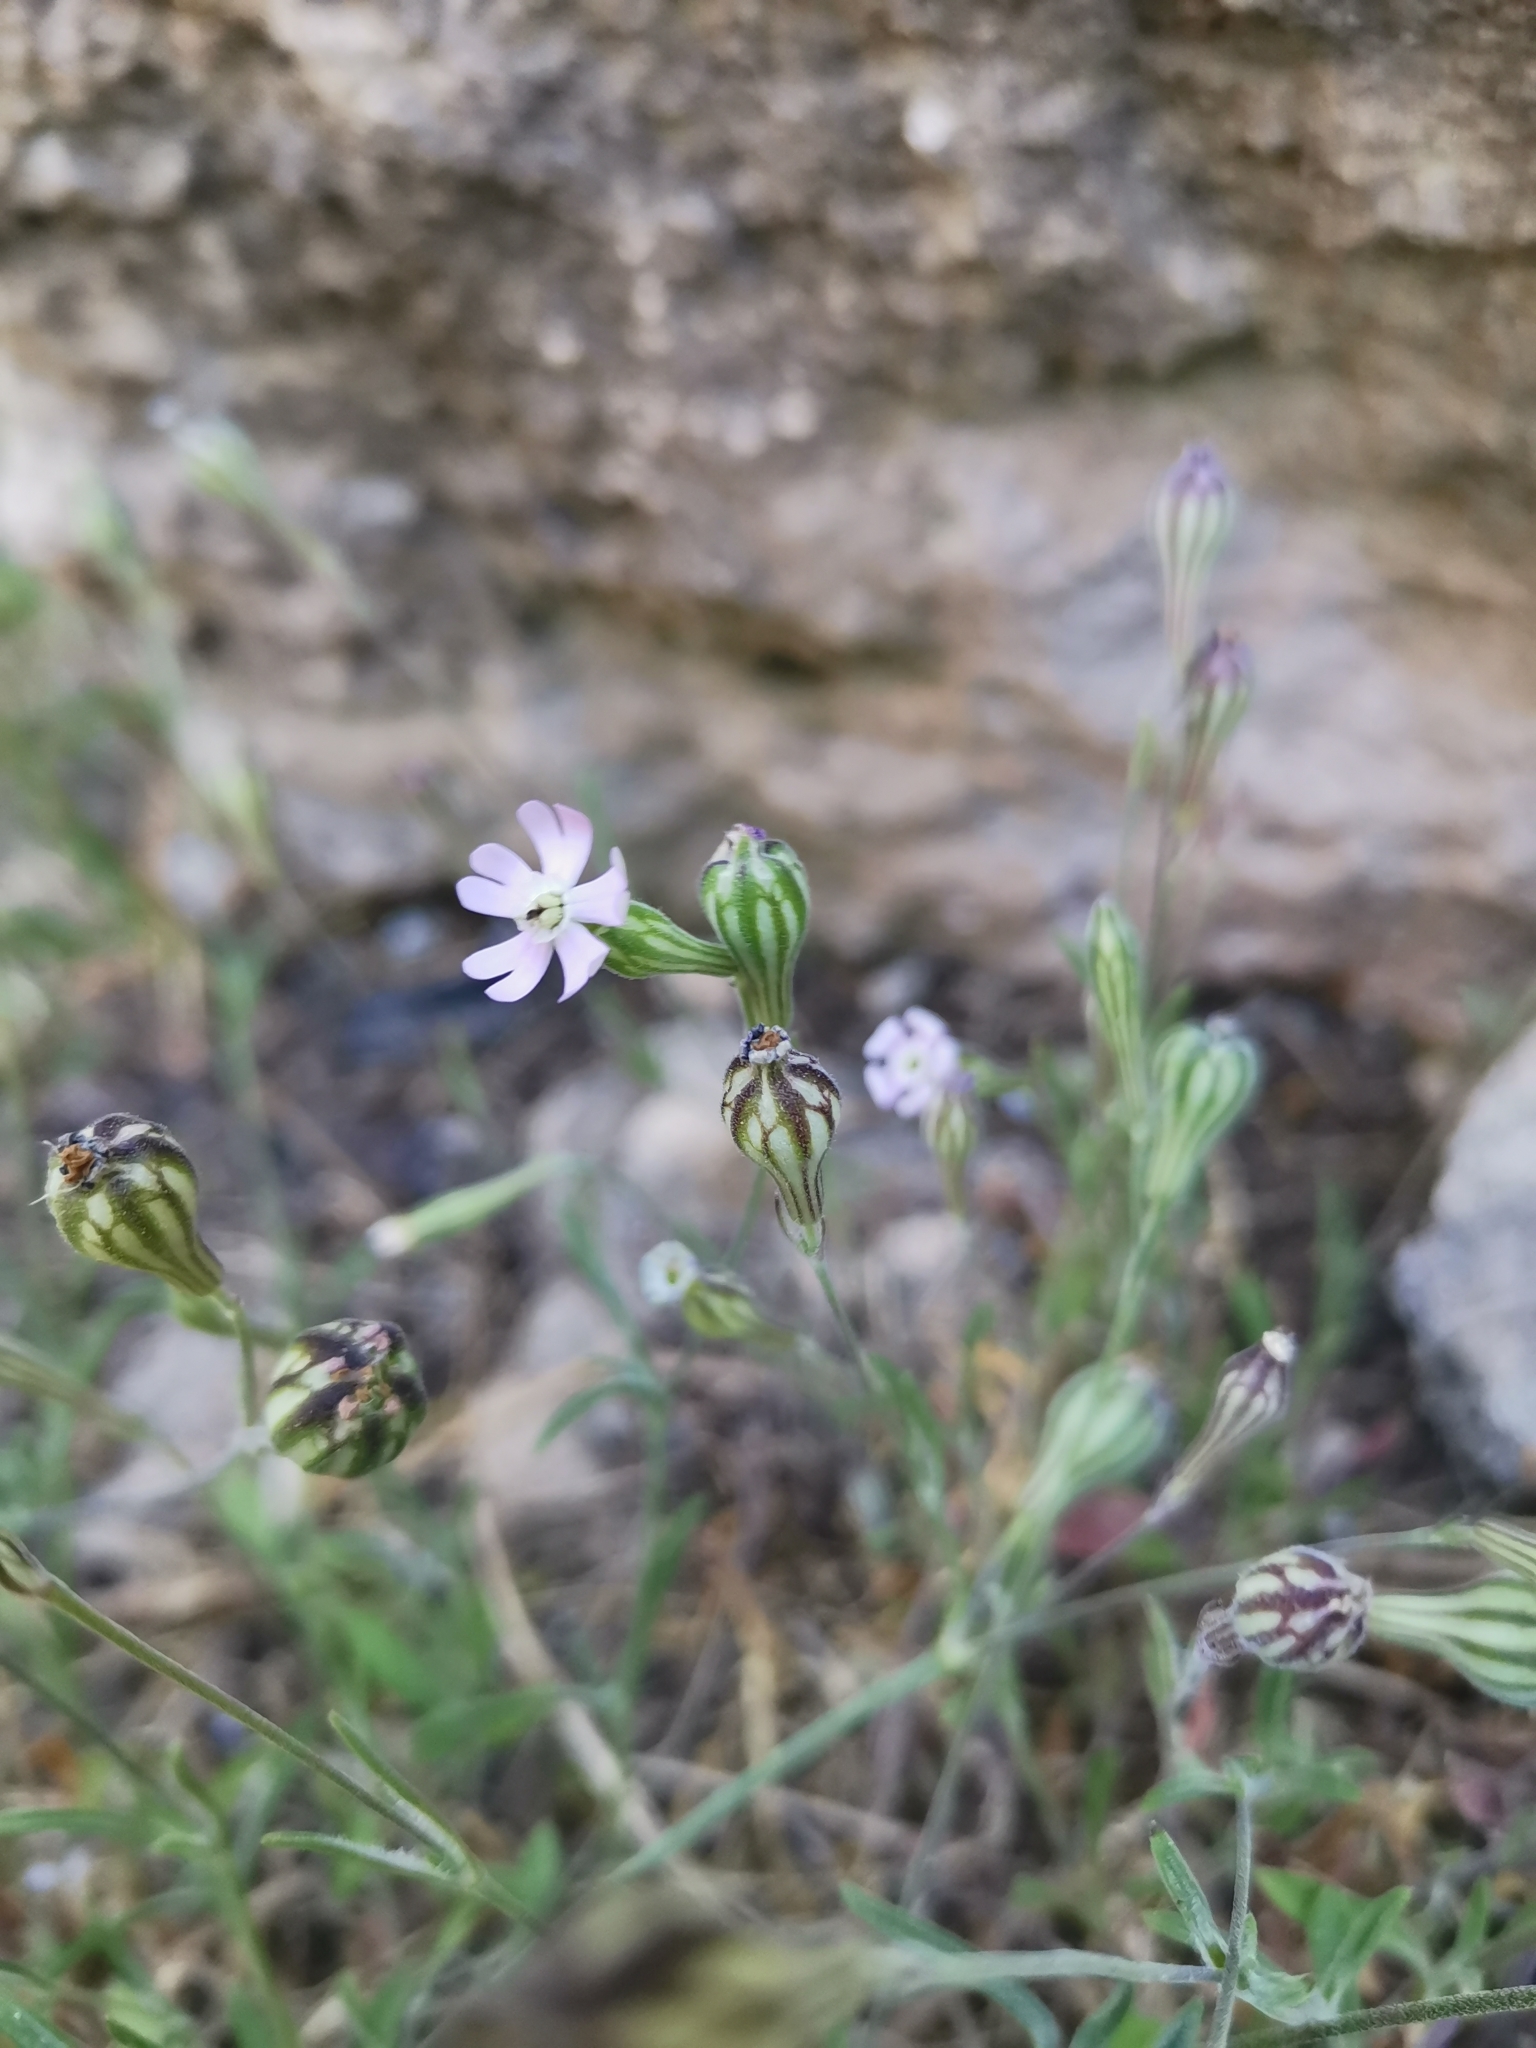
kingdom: Plantae
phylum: Tracheophyta
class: Magnoliopsida
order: Caryophyllales
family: Caryophyllaceae
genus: Silene
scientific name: Silene secundiflora
